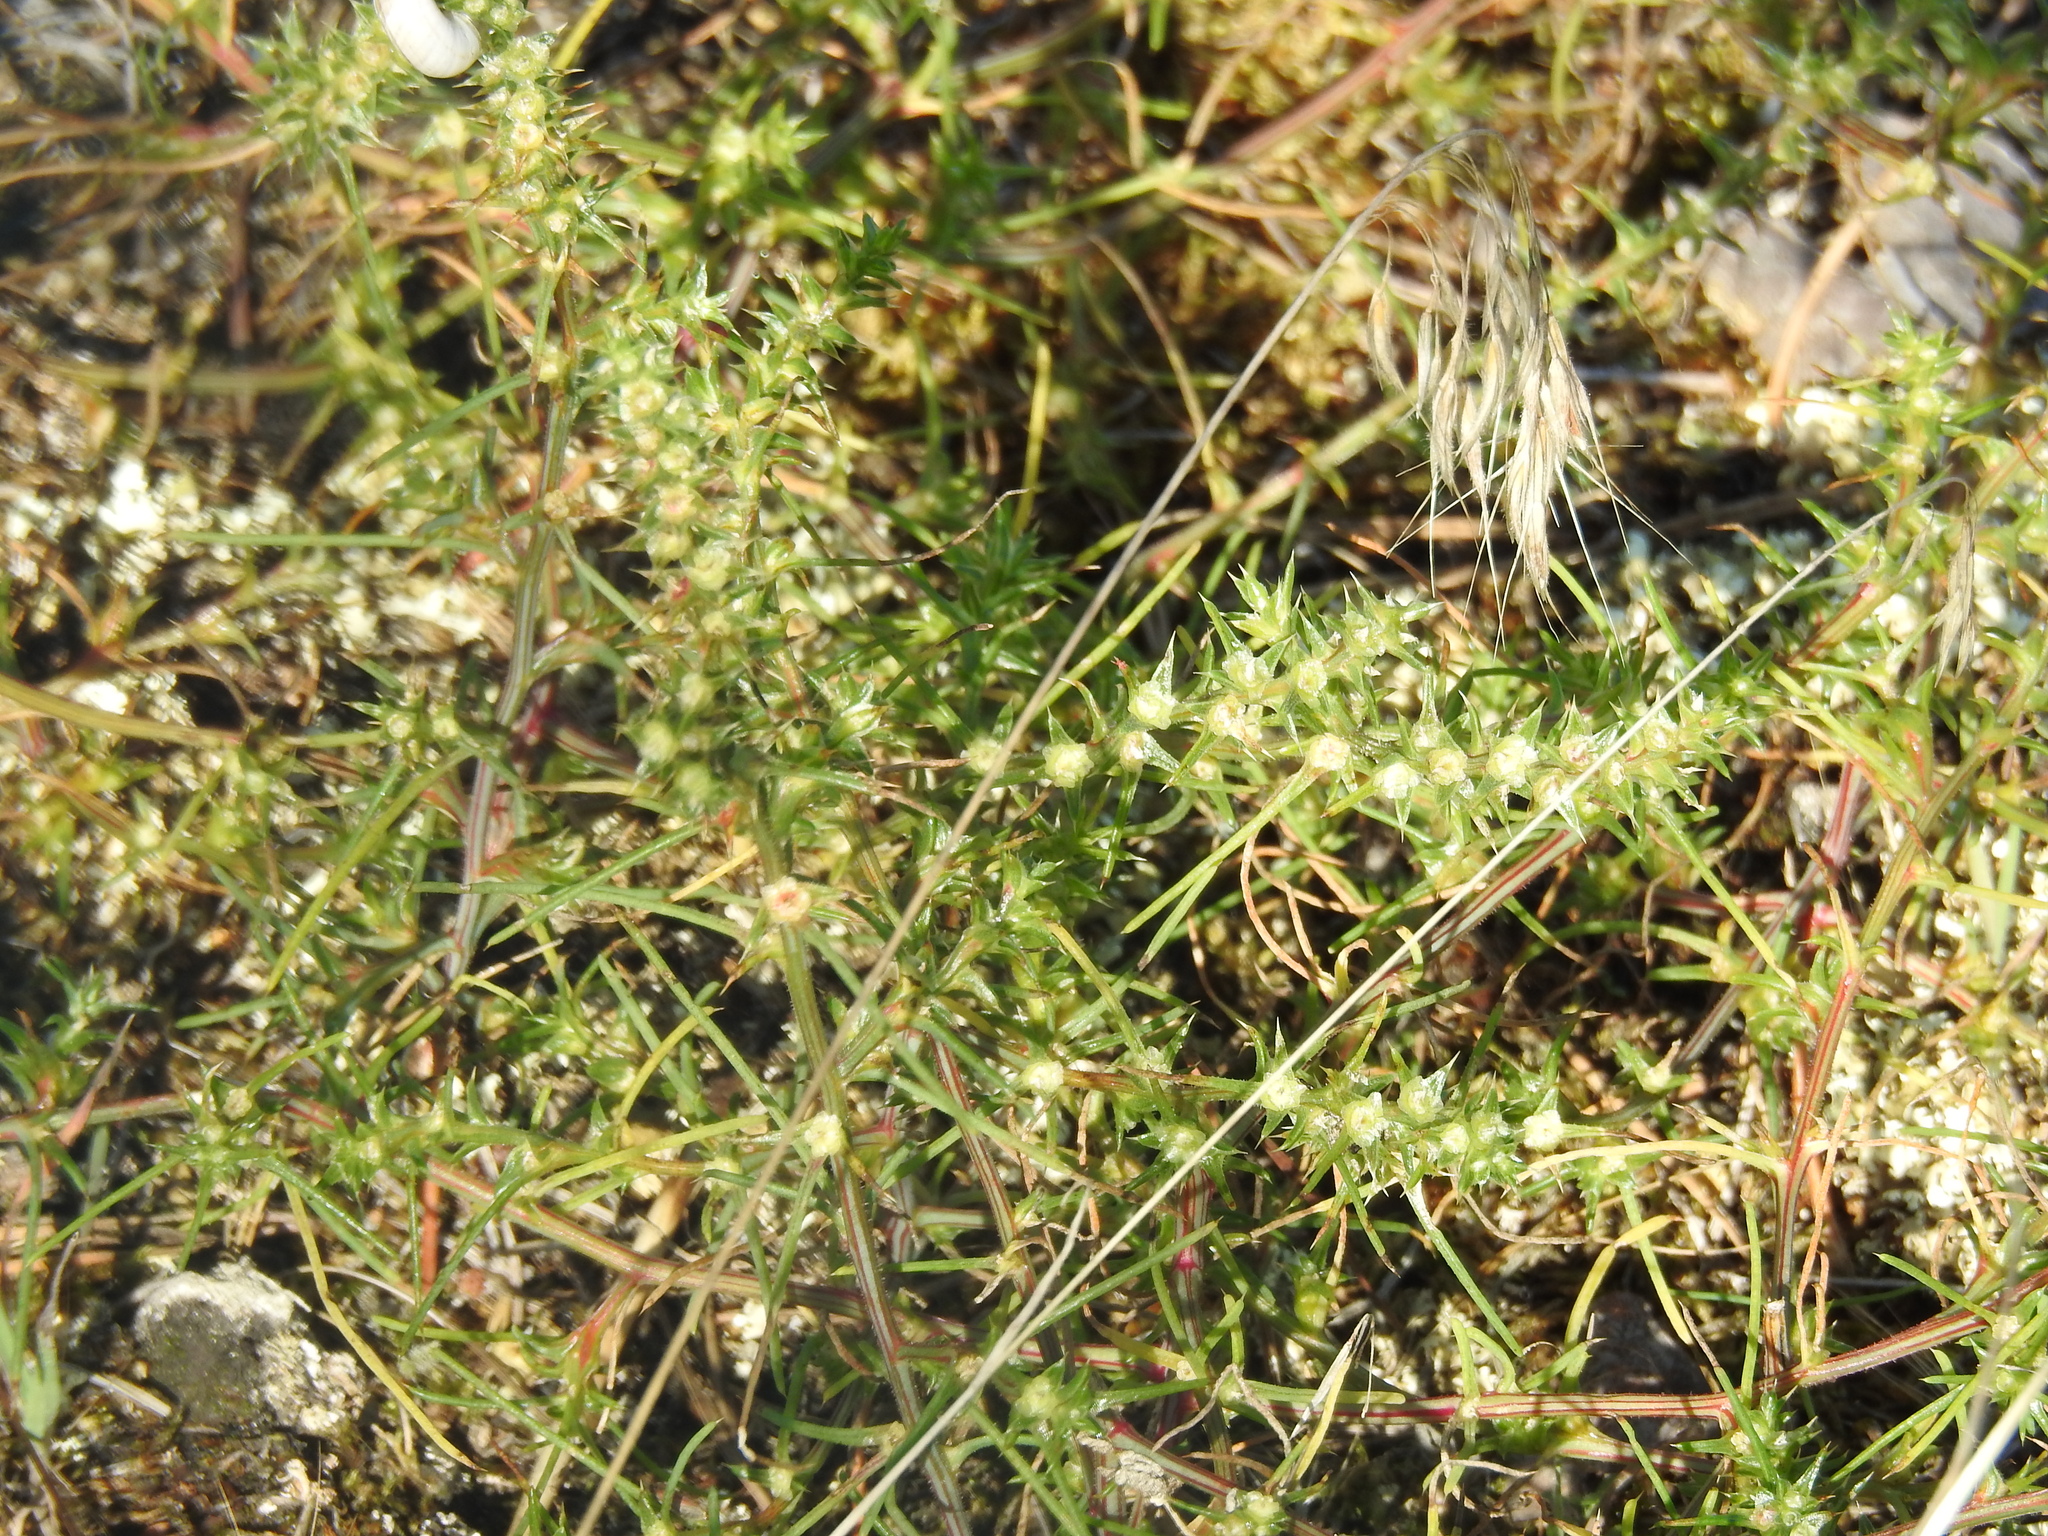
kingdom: Plantae
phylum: Tracheophyta
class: Magnoliopsida
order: Caryophyllales
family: Amaranthaceae
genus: Salsola
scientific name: Salsola tragus
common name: Prickly russian thistle
